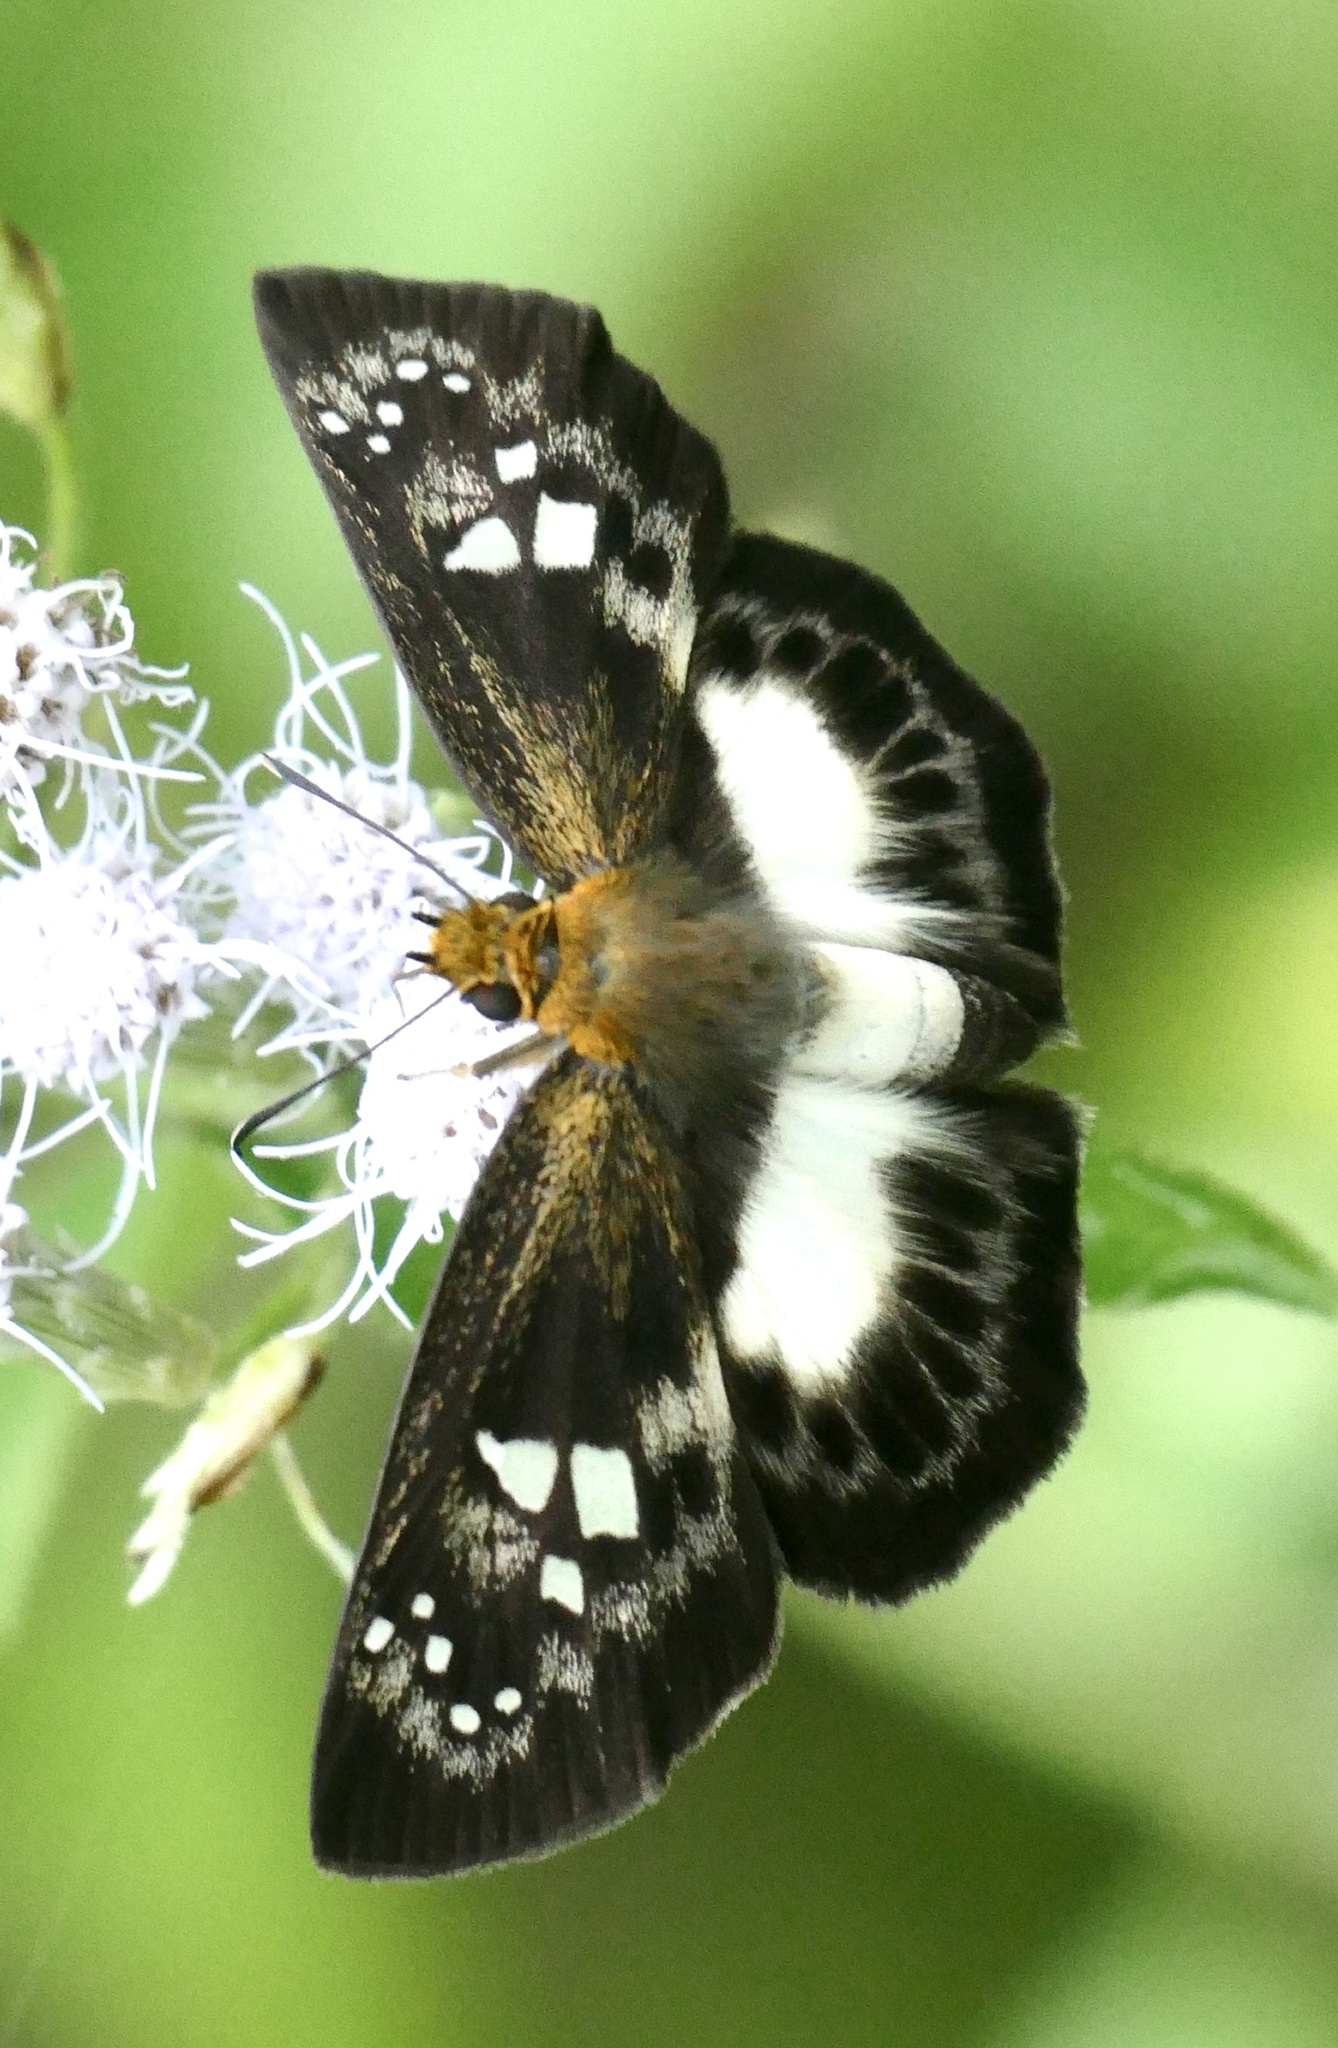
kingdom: Animalia
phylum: Arthropoda
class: Insecta
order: Lepidoptera
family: Hesperiidae
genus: Daimio
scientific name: Daimio
